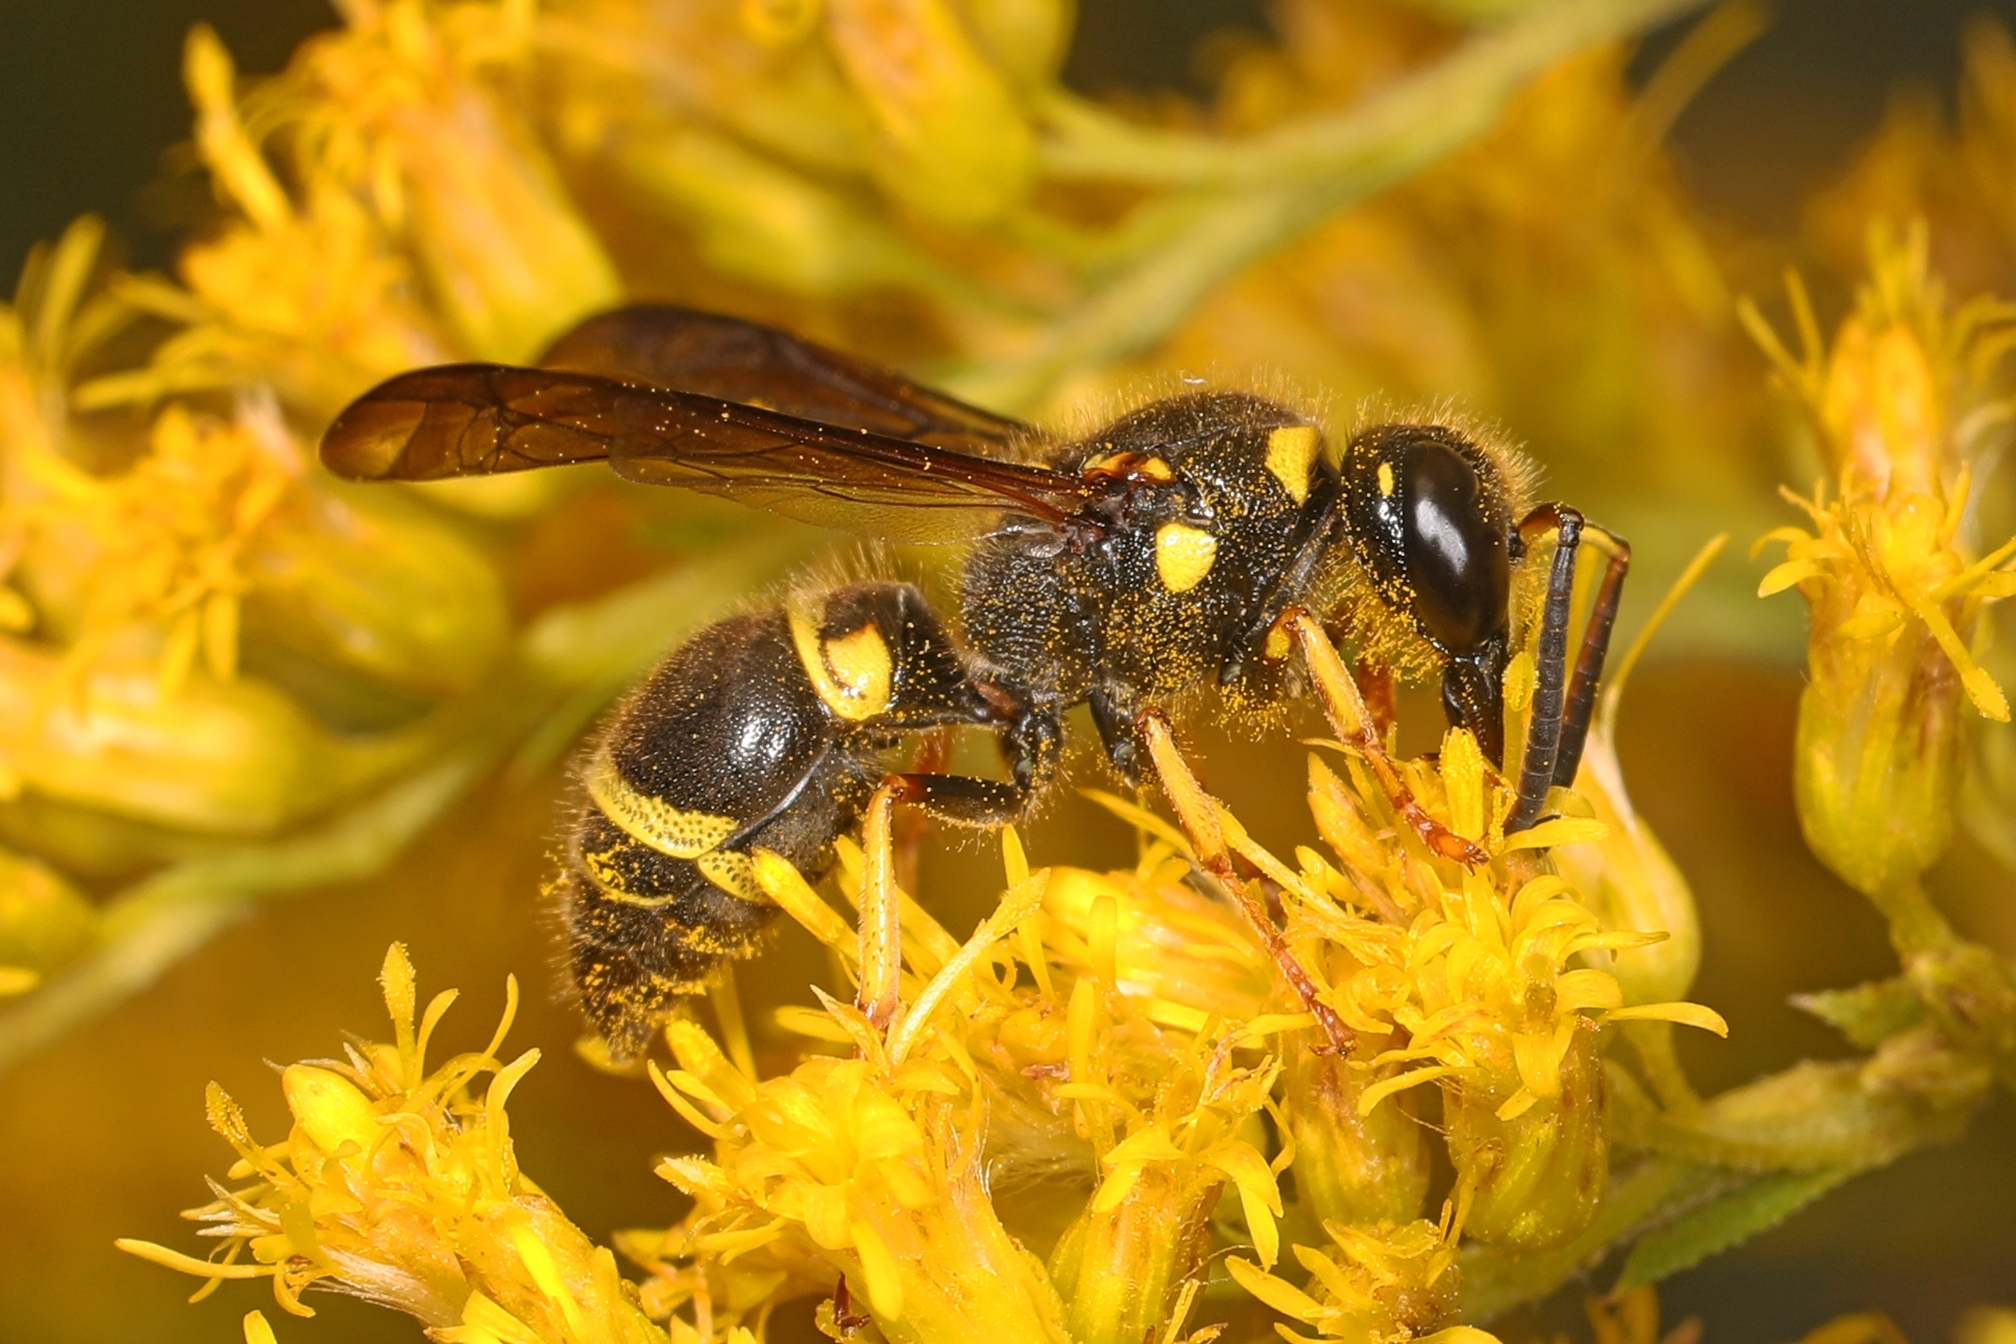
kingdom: Animalia
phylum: Arthropoda
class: Insecta
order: Hymenoptera
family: Vespidae
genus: Ancistrocerus
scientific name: Ancistrocerus campestris
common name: Smiling mason wasp
